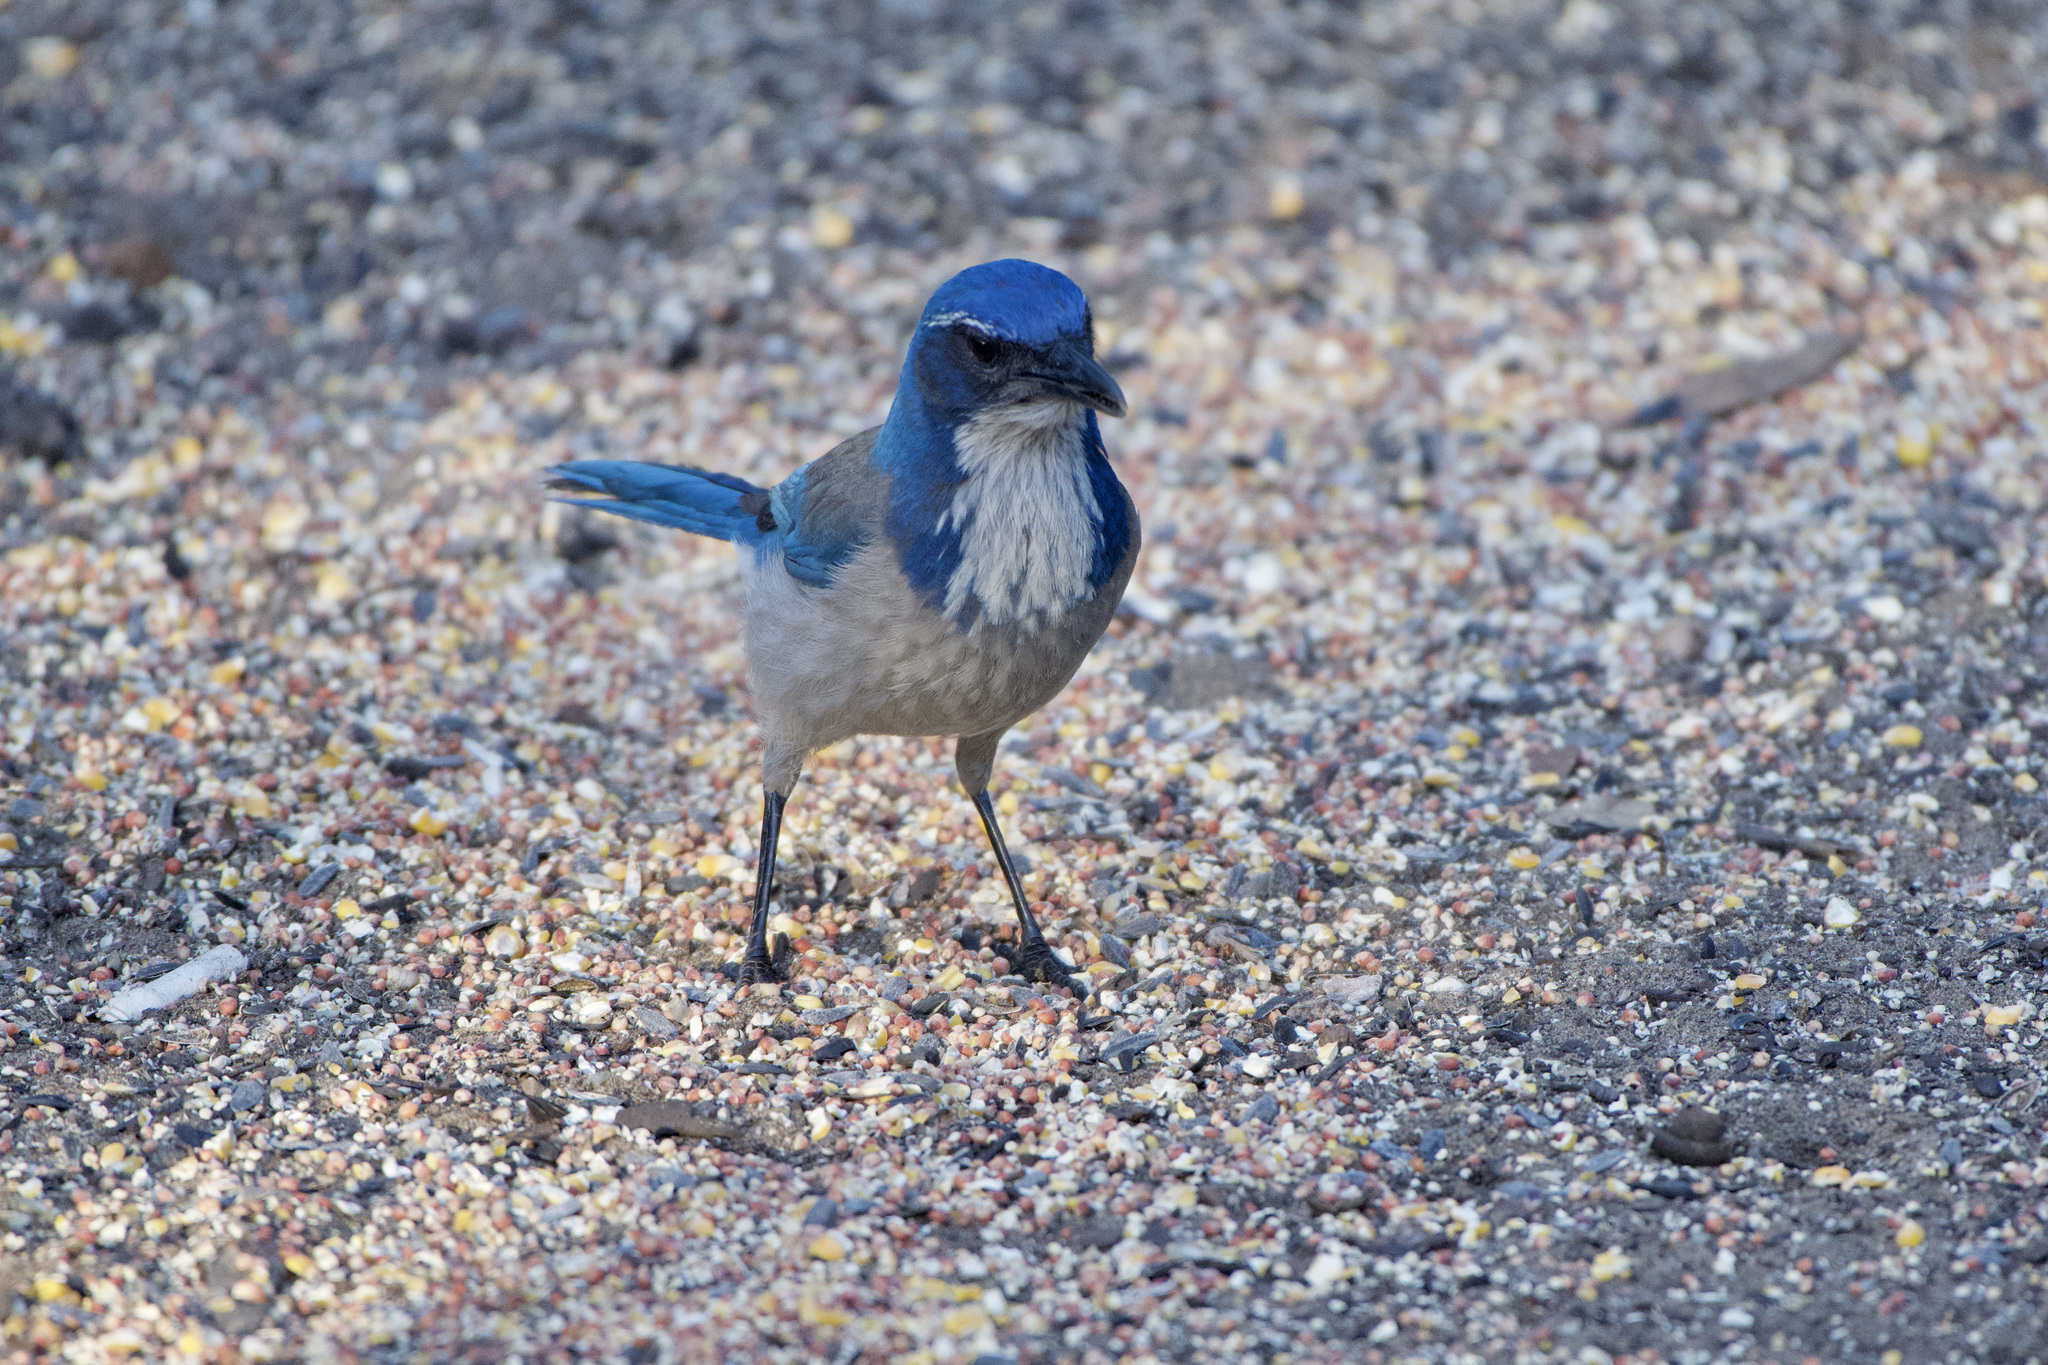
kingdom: Animalia
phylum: Chordata
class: Aves
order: Passeriformes
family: Corvidae
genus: Aphelocoma
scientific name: Aphelocoma californica
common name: California scrub-jay
